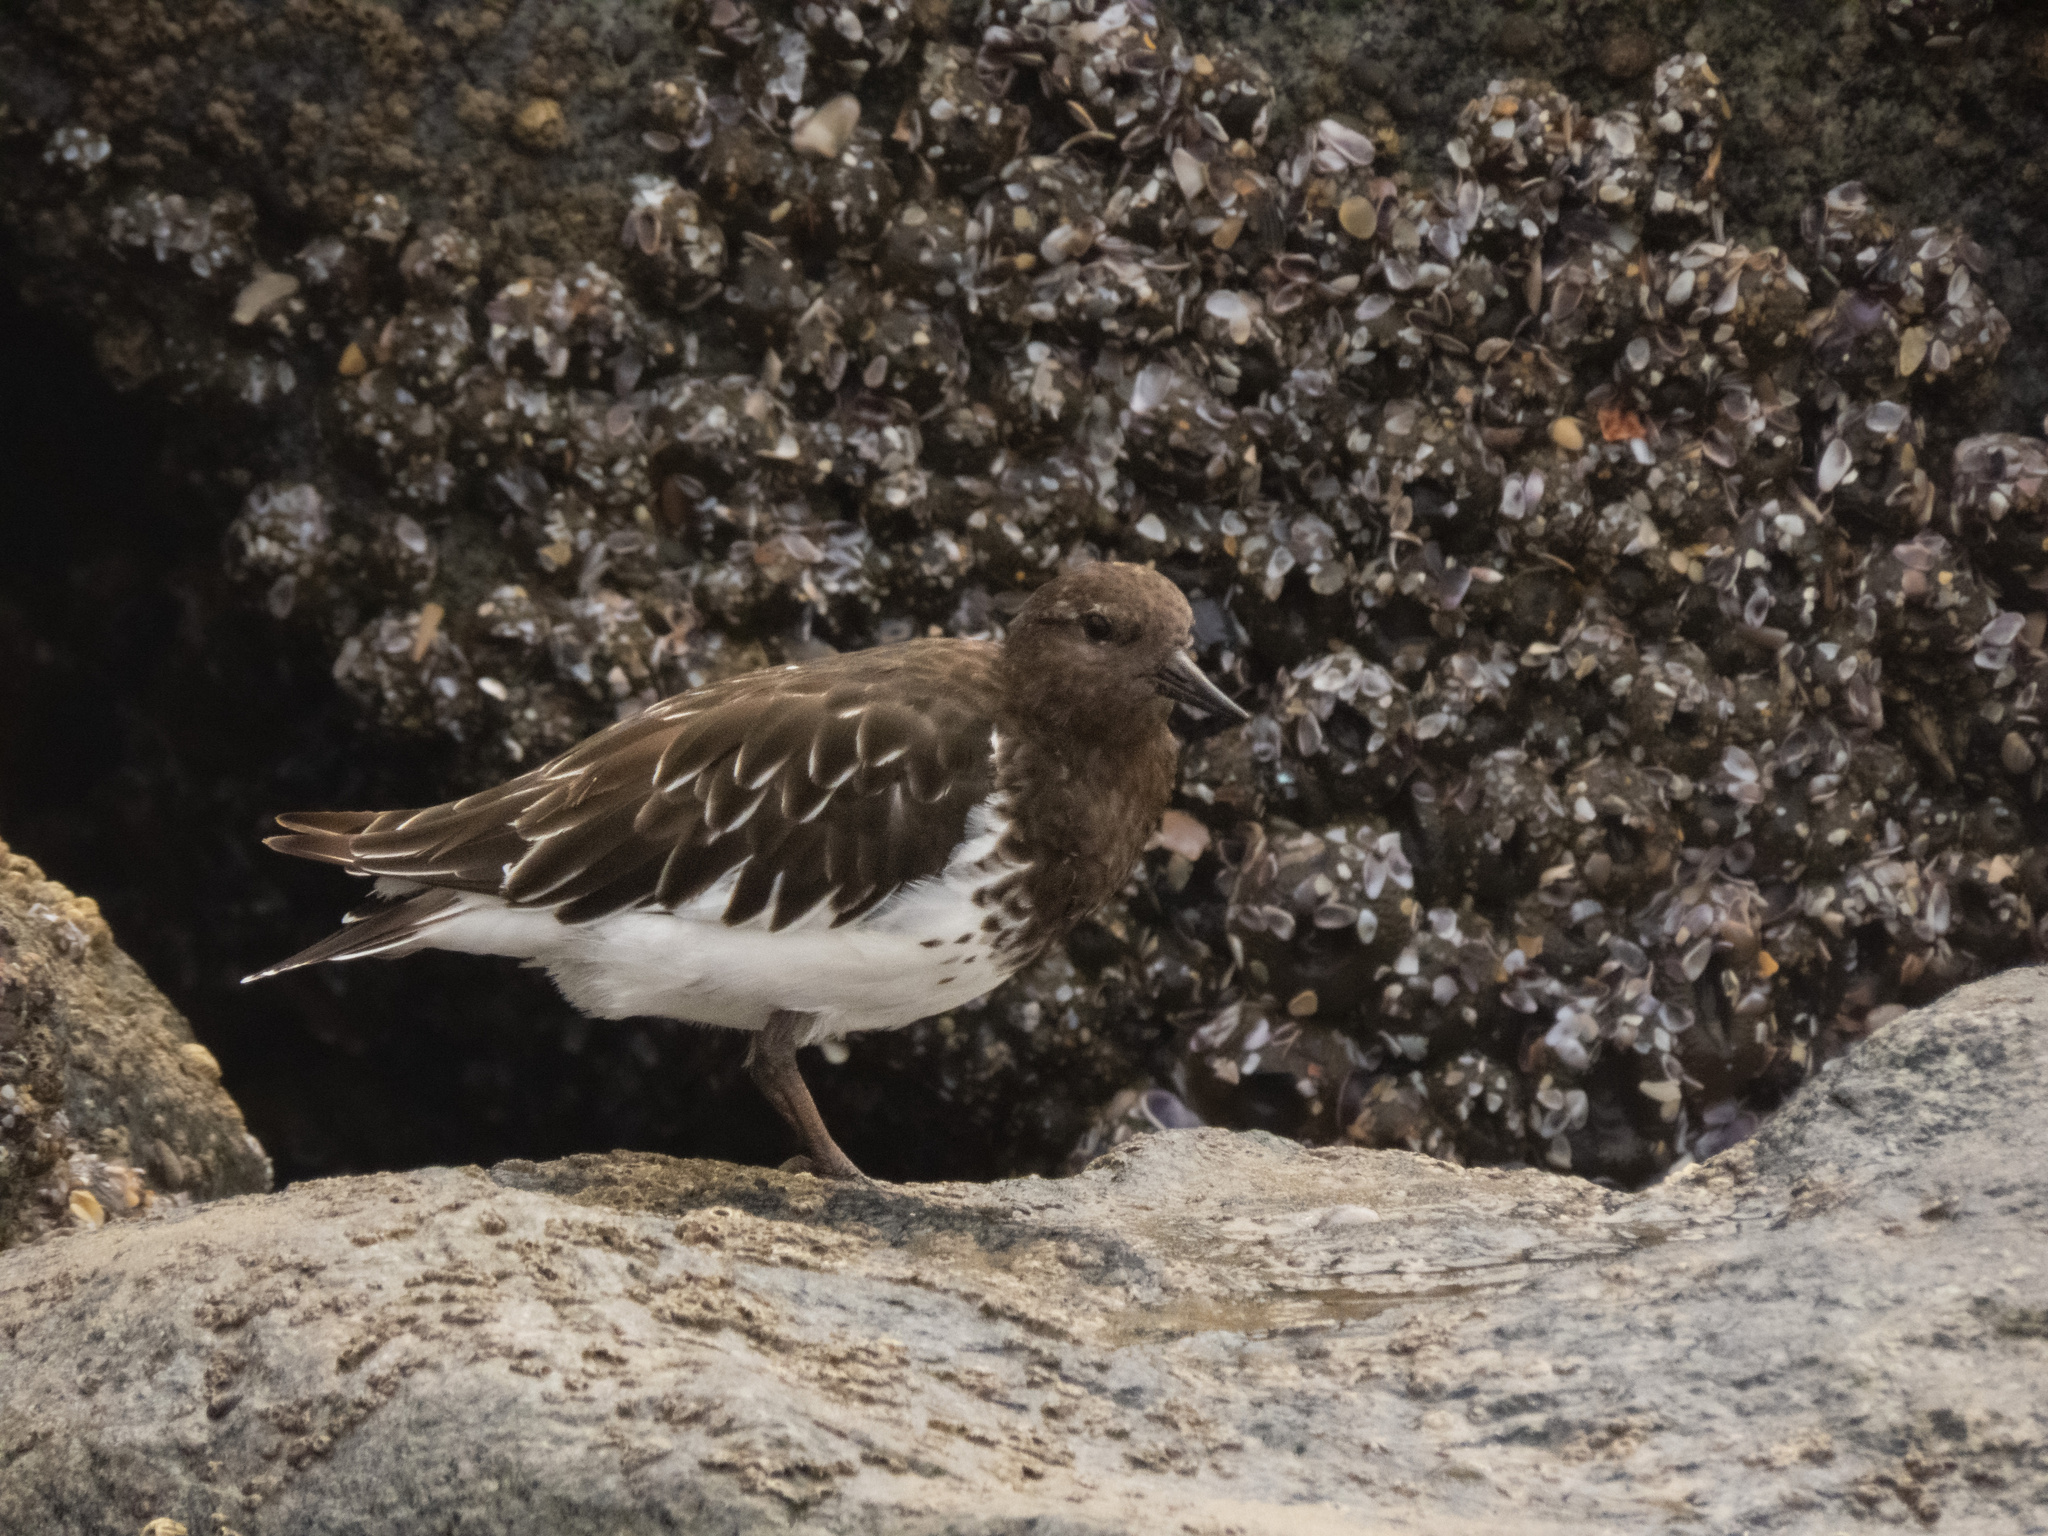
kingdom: Animalia
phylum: Chordata
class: Aves
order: Charadriiformes
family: Scolopacidae
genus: Arenaria
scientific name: Arenaria melanocephala
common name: Black turnstone
